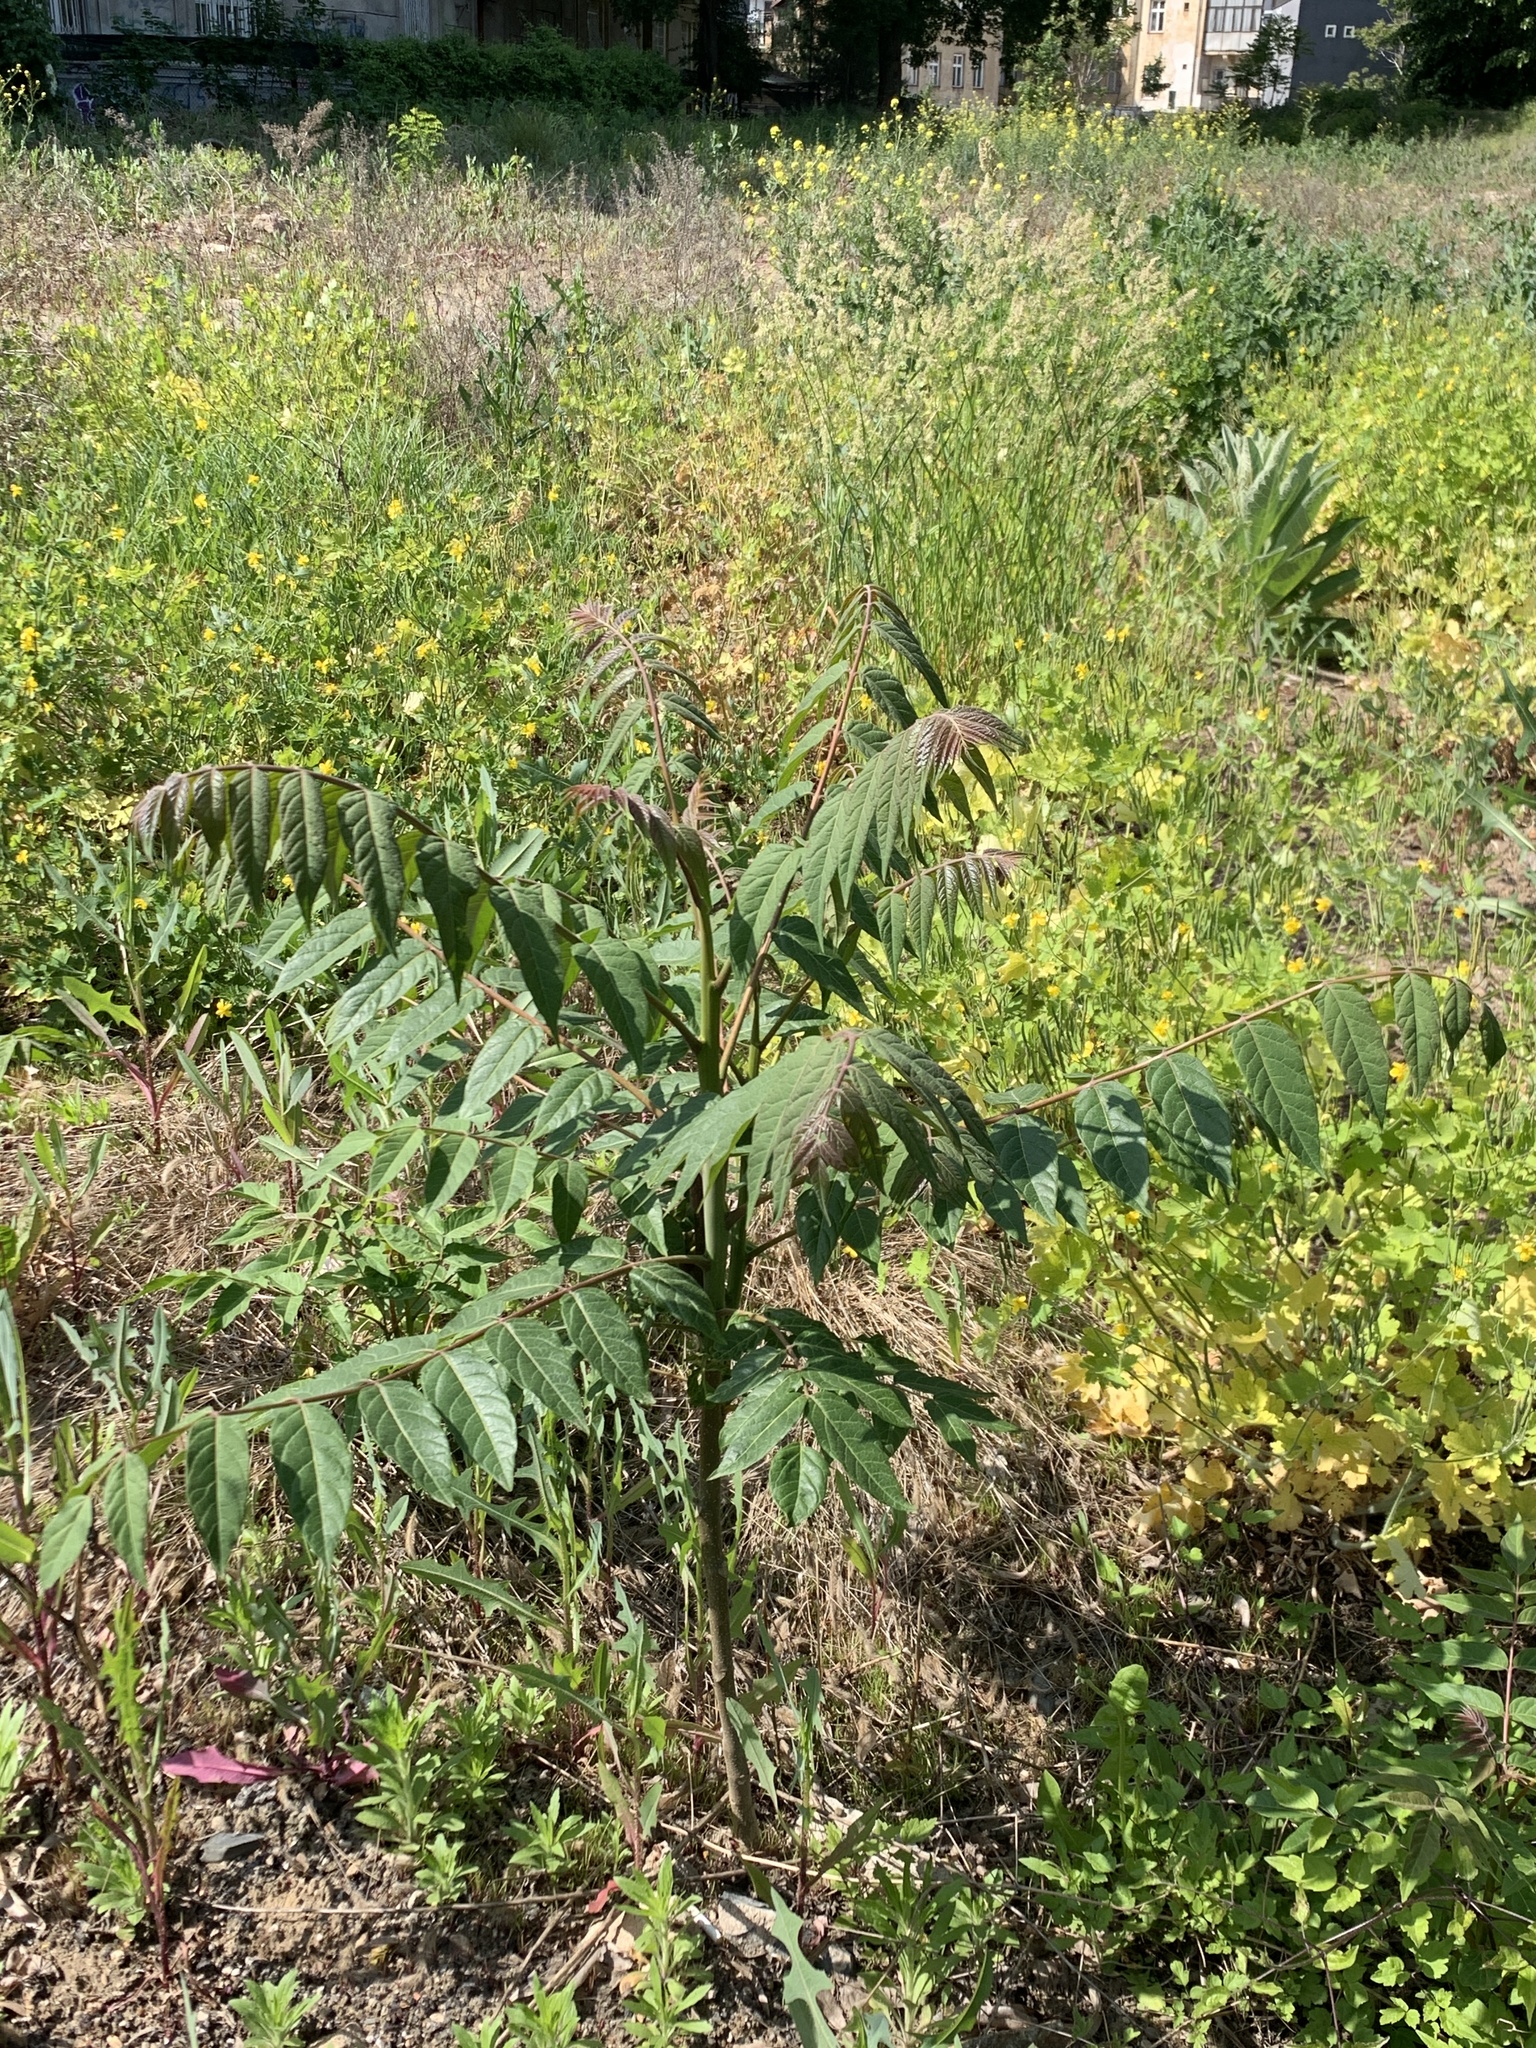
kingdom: Plantae
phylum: Tracheophyta
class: Magnoliopsida
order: Sapindales
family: Simaroubaceae
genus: Ailanthus
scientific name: Ailanthus altissima
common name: Tree-of-heaven
